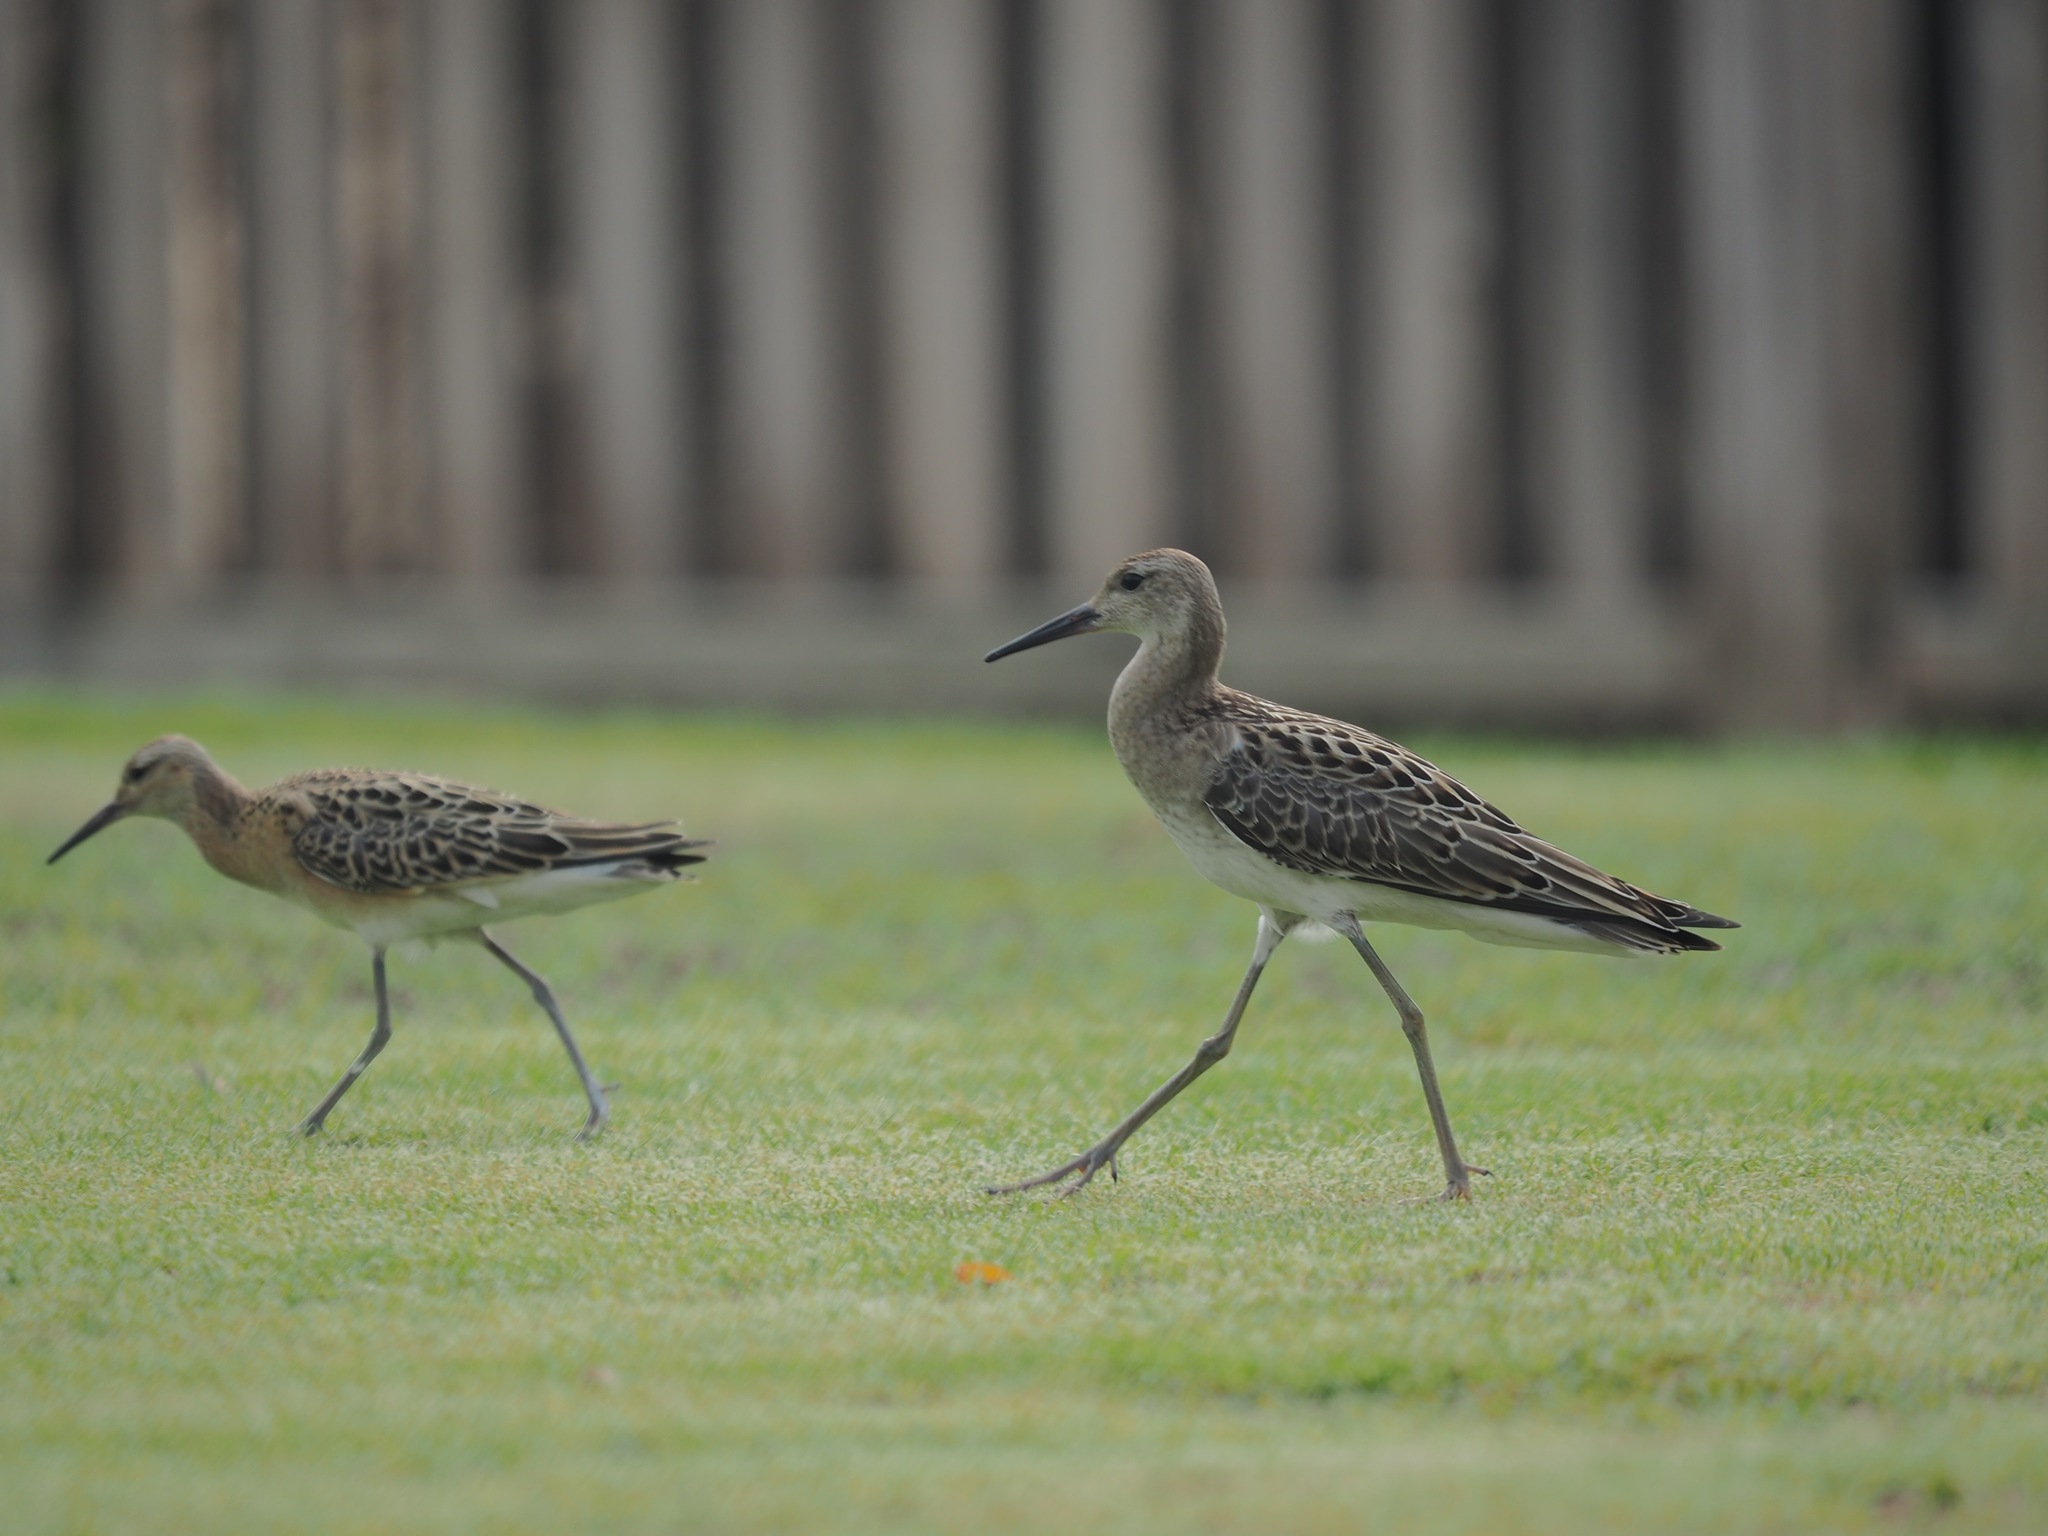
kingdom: Animalia
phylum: Chordata
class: Aves
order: Charadriiformes
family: Scolopacidae
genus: Calidris
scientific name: Calidris pugnax
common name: Ruff
